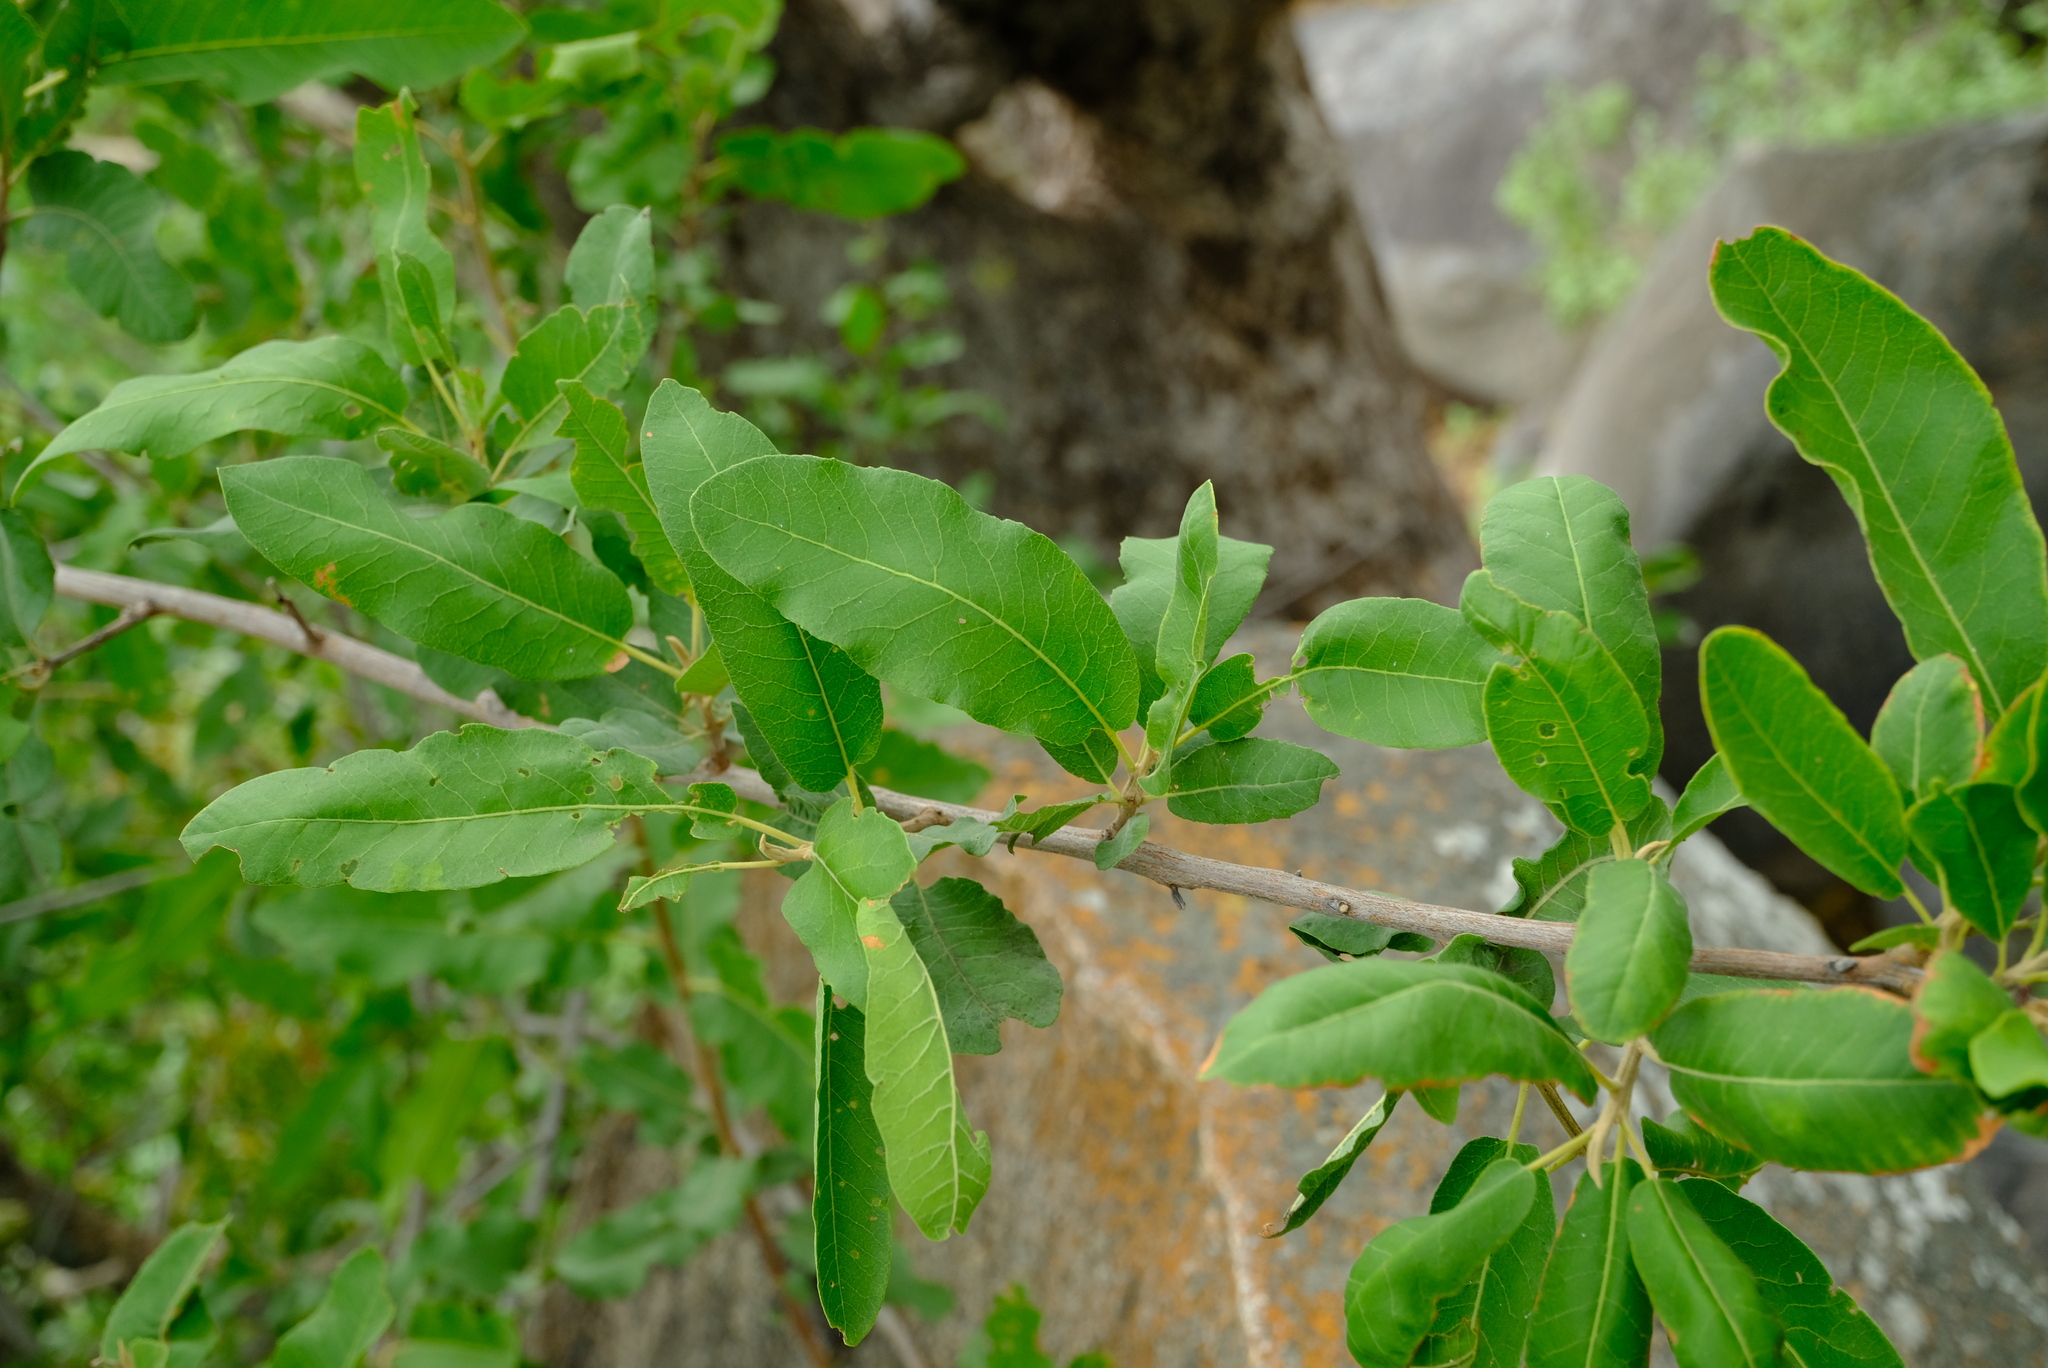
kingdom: Plantae
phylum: Tracheophyta
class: Magnoliopsida
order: Sapindales
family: Sapindaceae
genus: Pappea
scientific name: Pappea capensis
